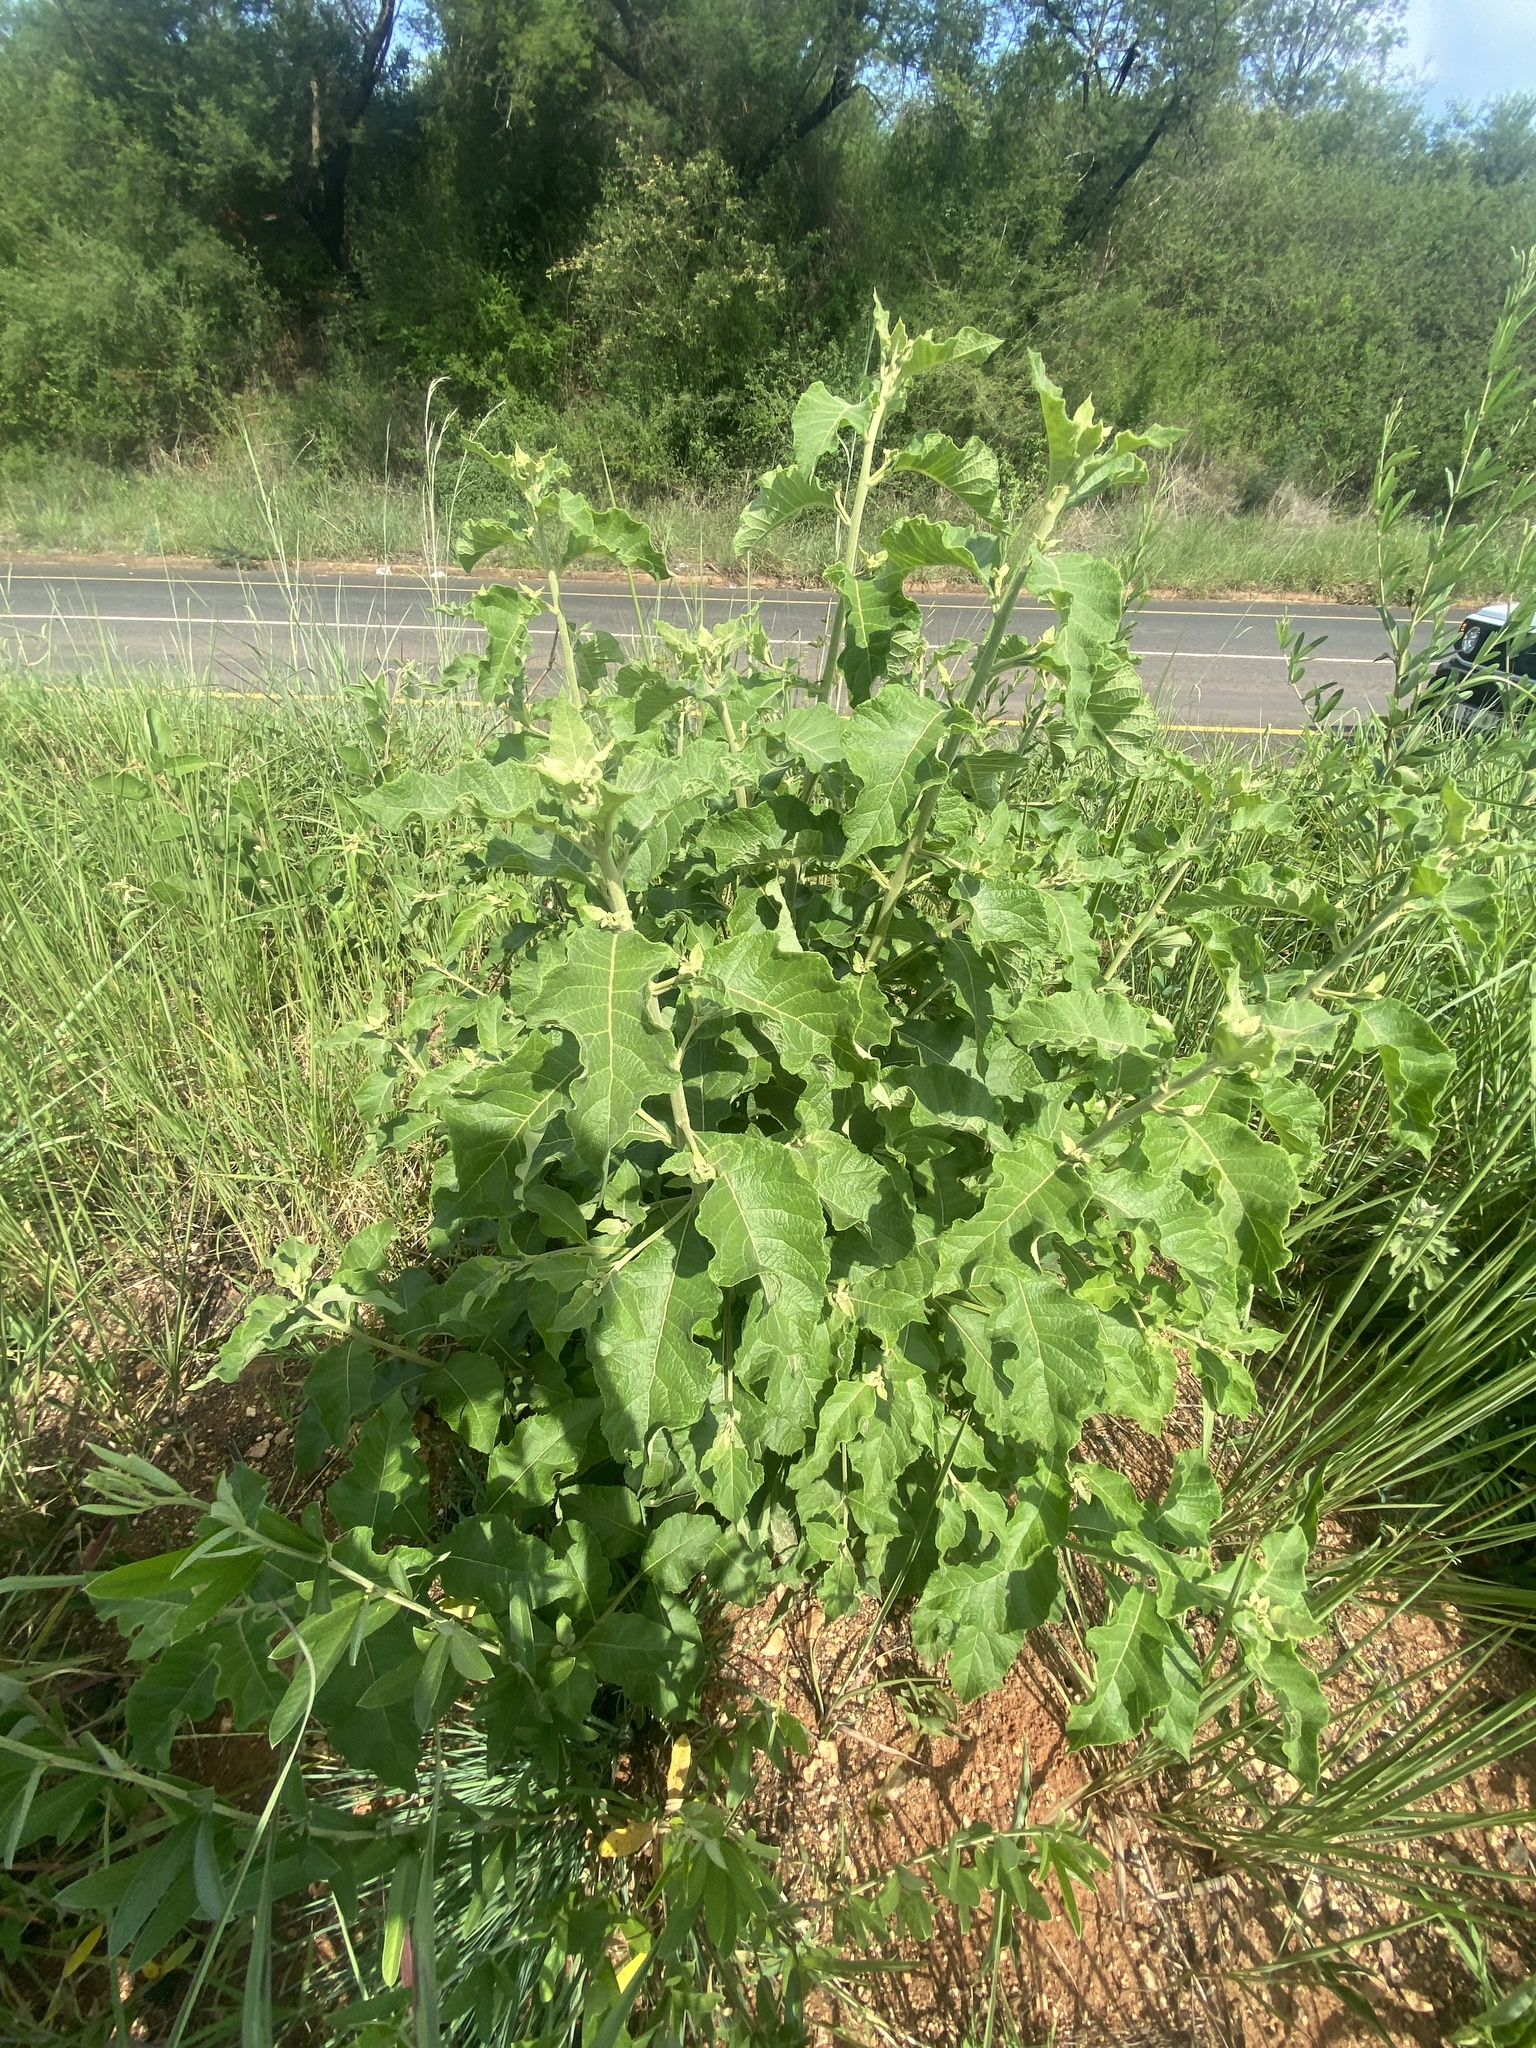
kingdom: Plantae
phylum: Tracheophyta
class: Magnoliopsida
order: Asterales
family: Asteraceae
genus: Vernonia
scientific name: Vernonia colorata
